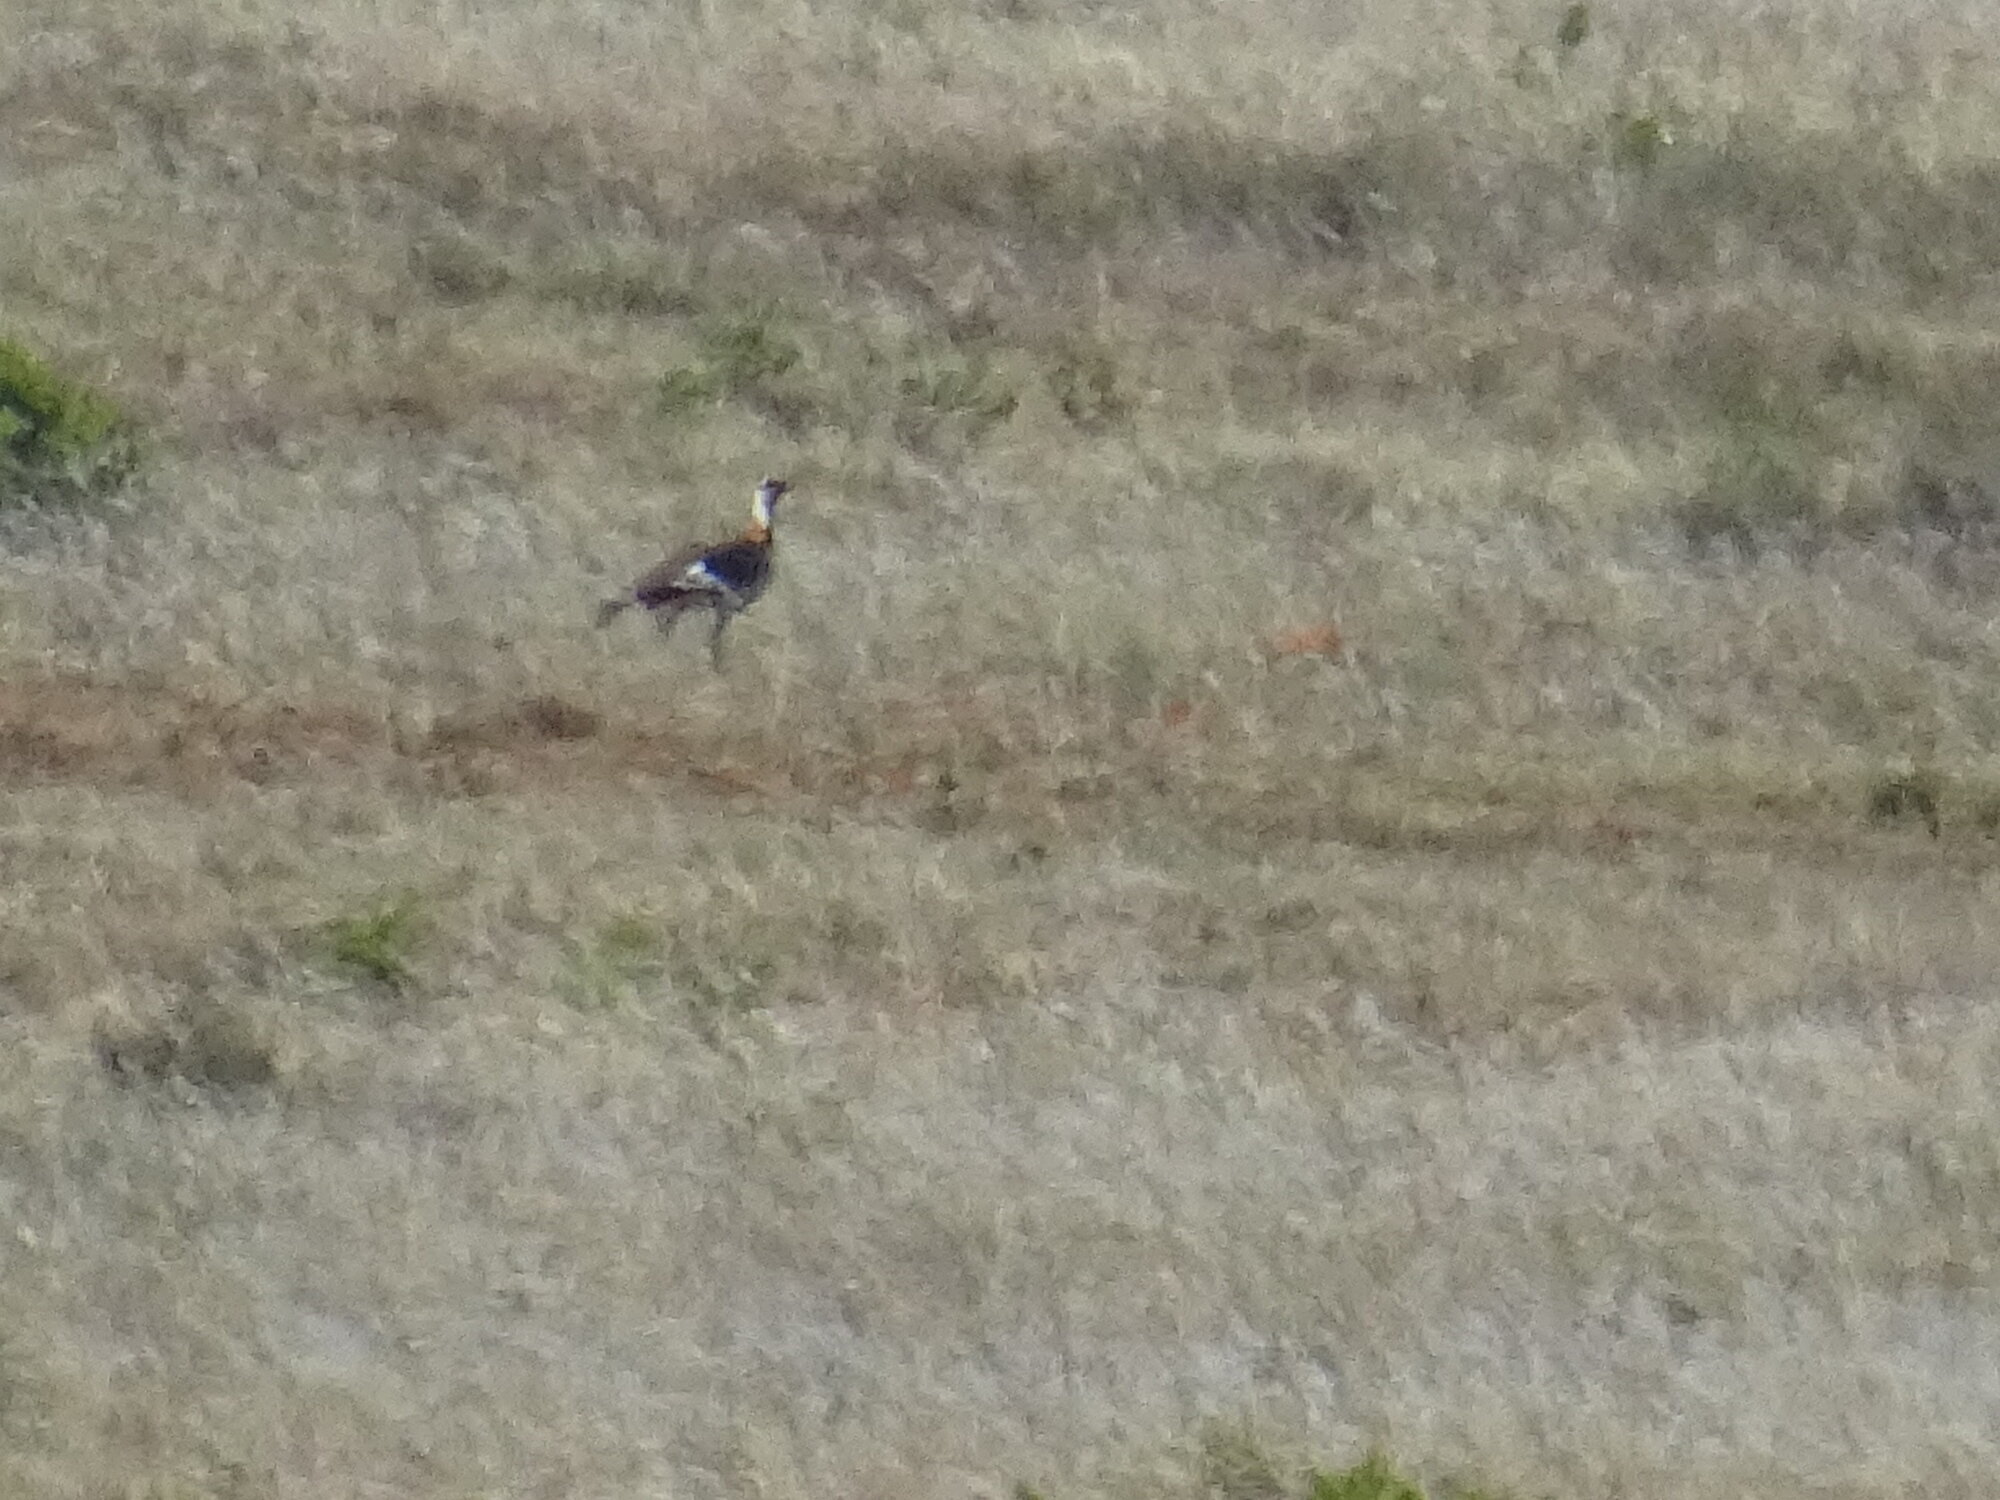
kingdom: Animalia
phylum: Chordata
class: Aves
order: Otidiformes
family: Otididae
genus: Neotis
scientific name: Neotis denhami
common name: Denham's bustard
